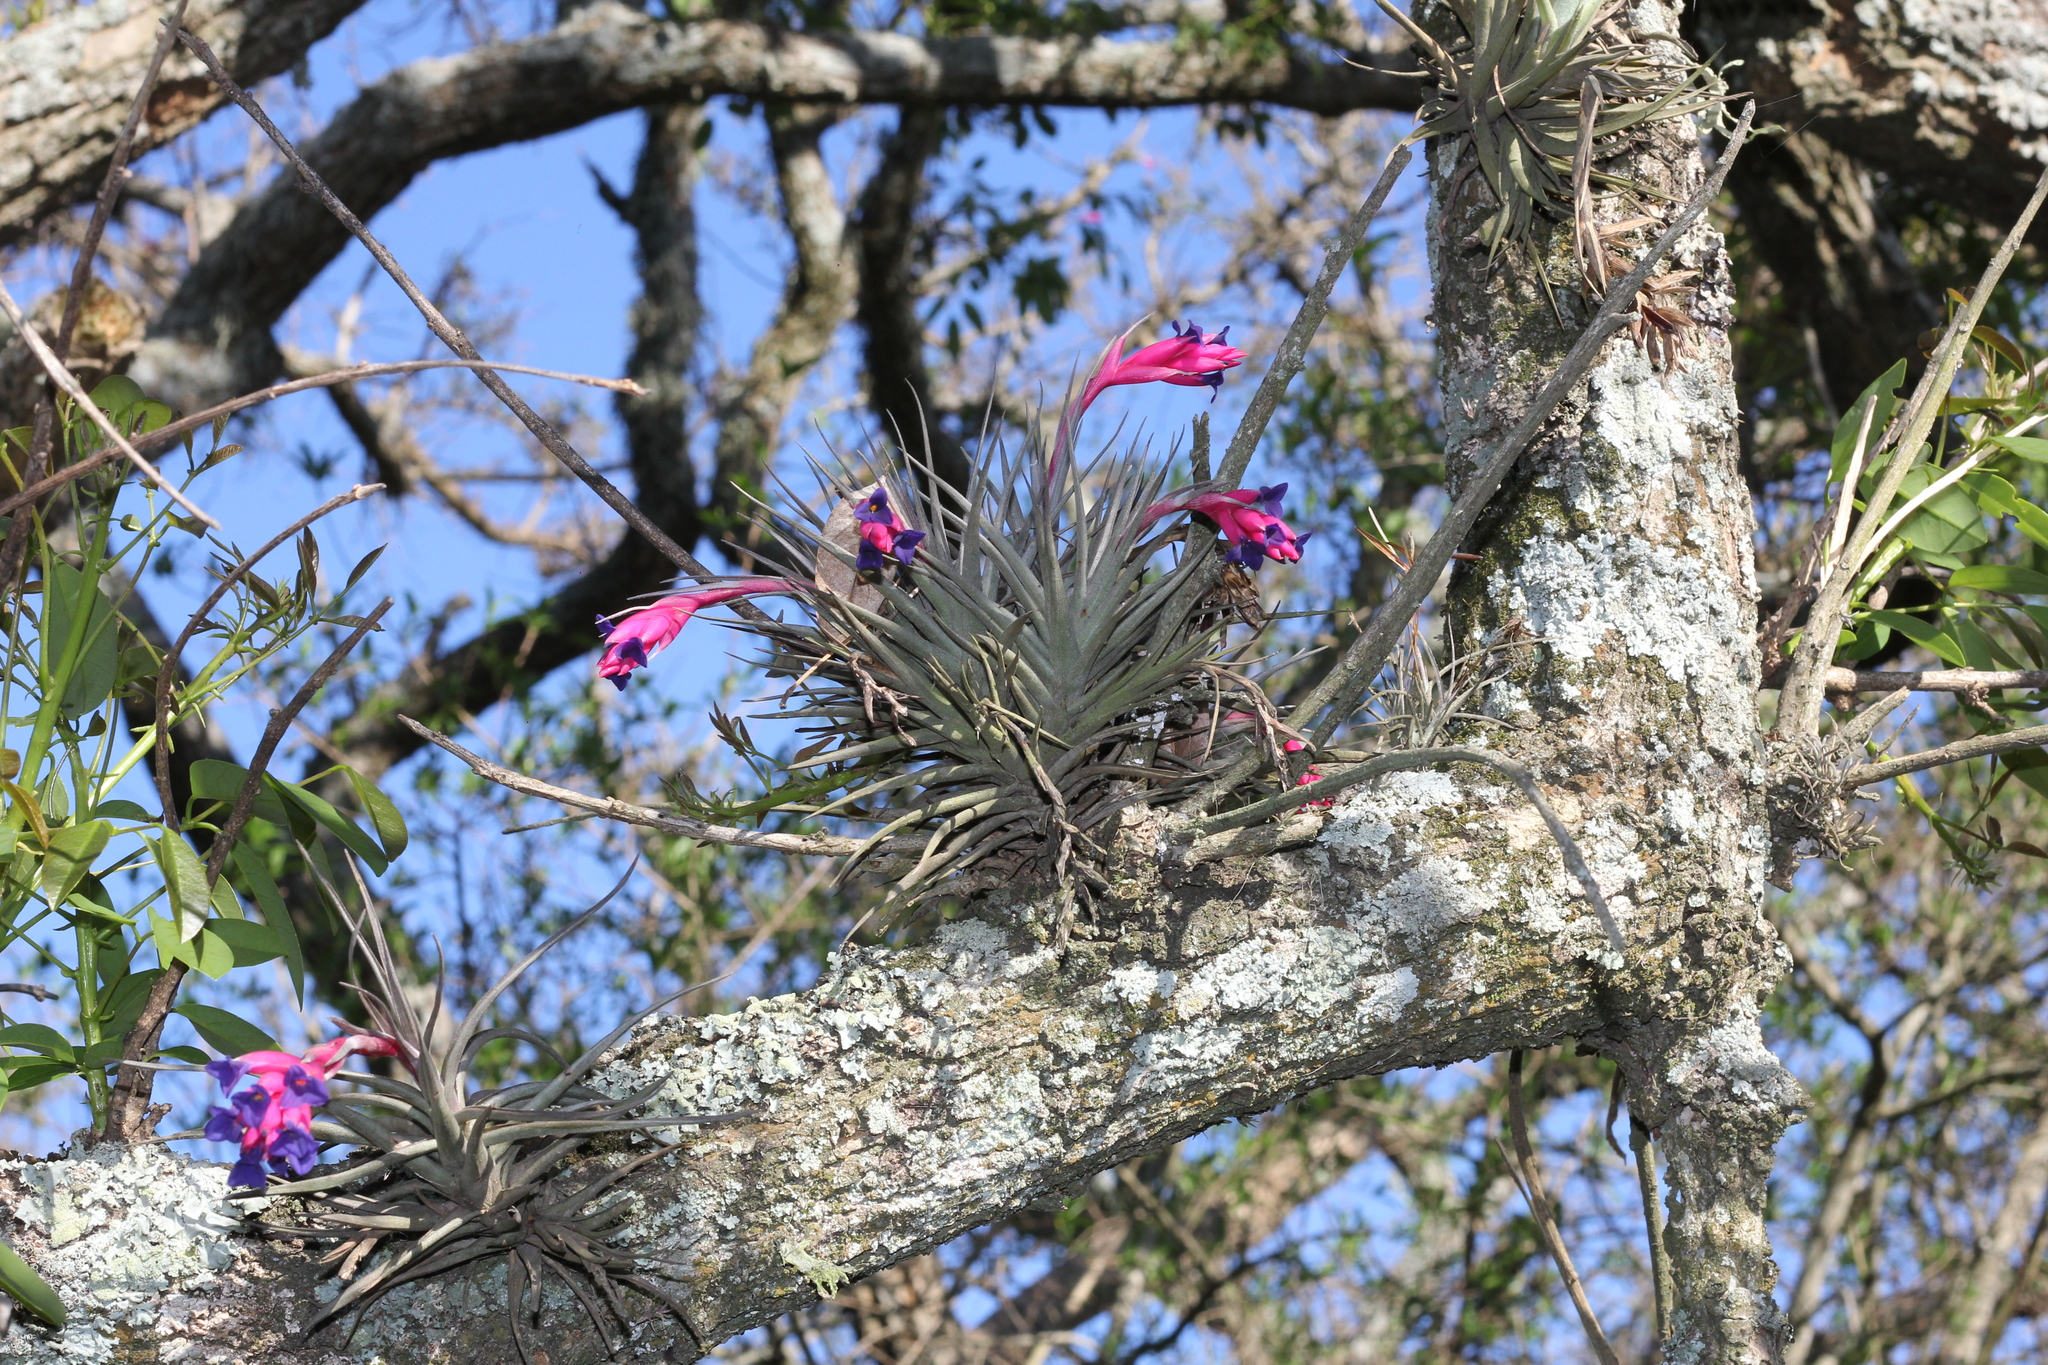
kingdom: Plantae
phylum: Tracheophyta
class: Liliopsida
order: Poales
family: Bromeliaceae
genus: Tillandsia
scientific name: Tillandsia aeranthos
